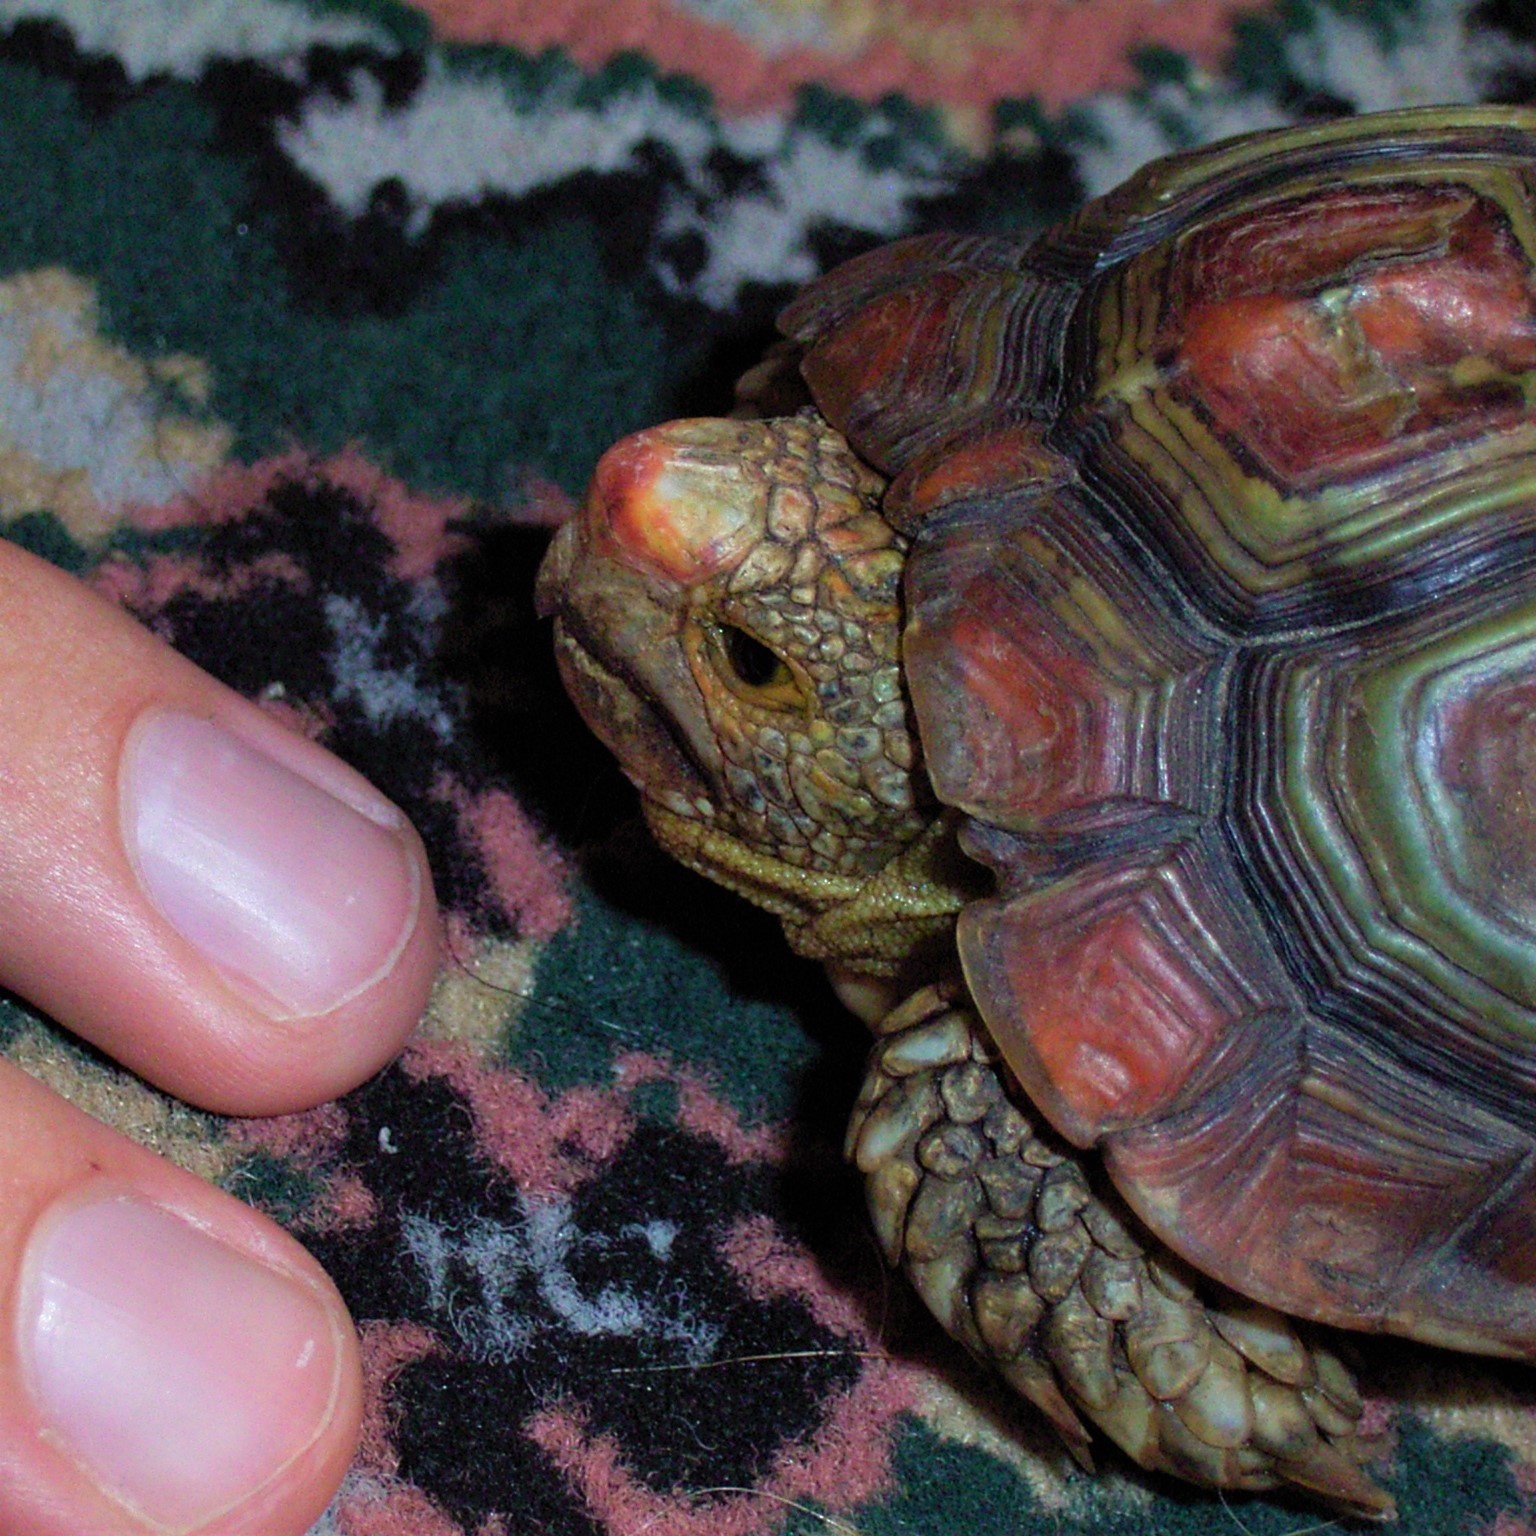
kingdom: Animalia
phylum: Chordata
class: Testudines
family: Testudinidae
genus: Homopus
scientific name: Homopus areolatus
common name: Parrot-beaked tortoise
